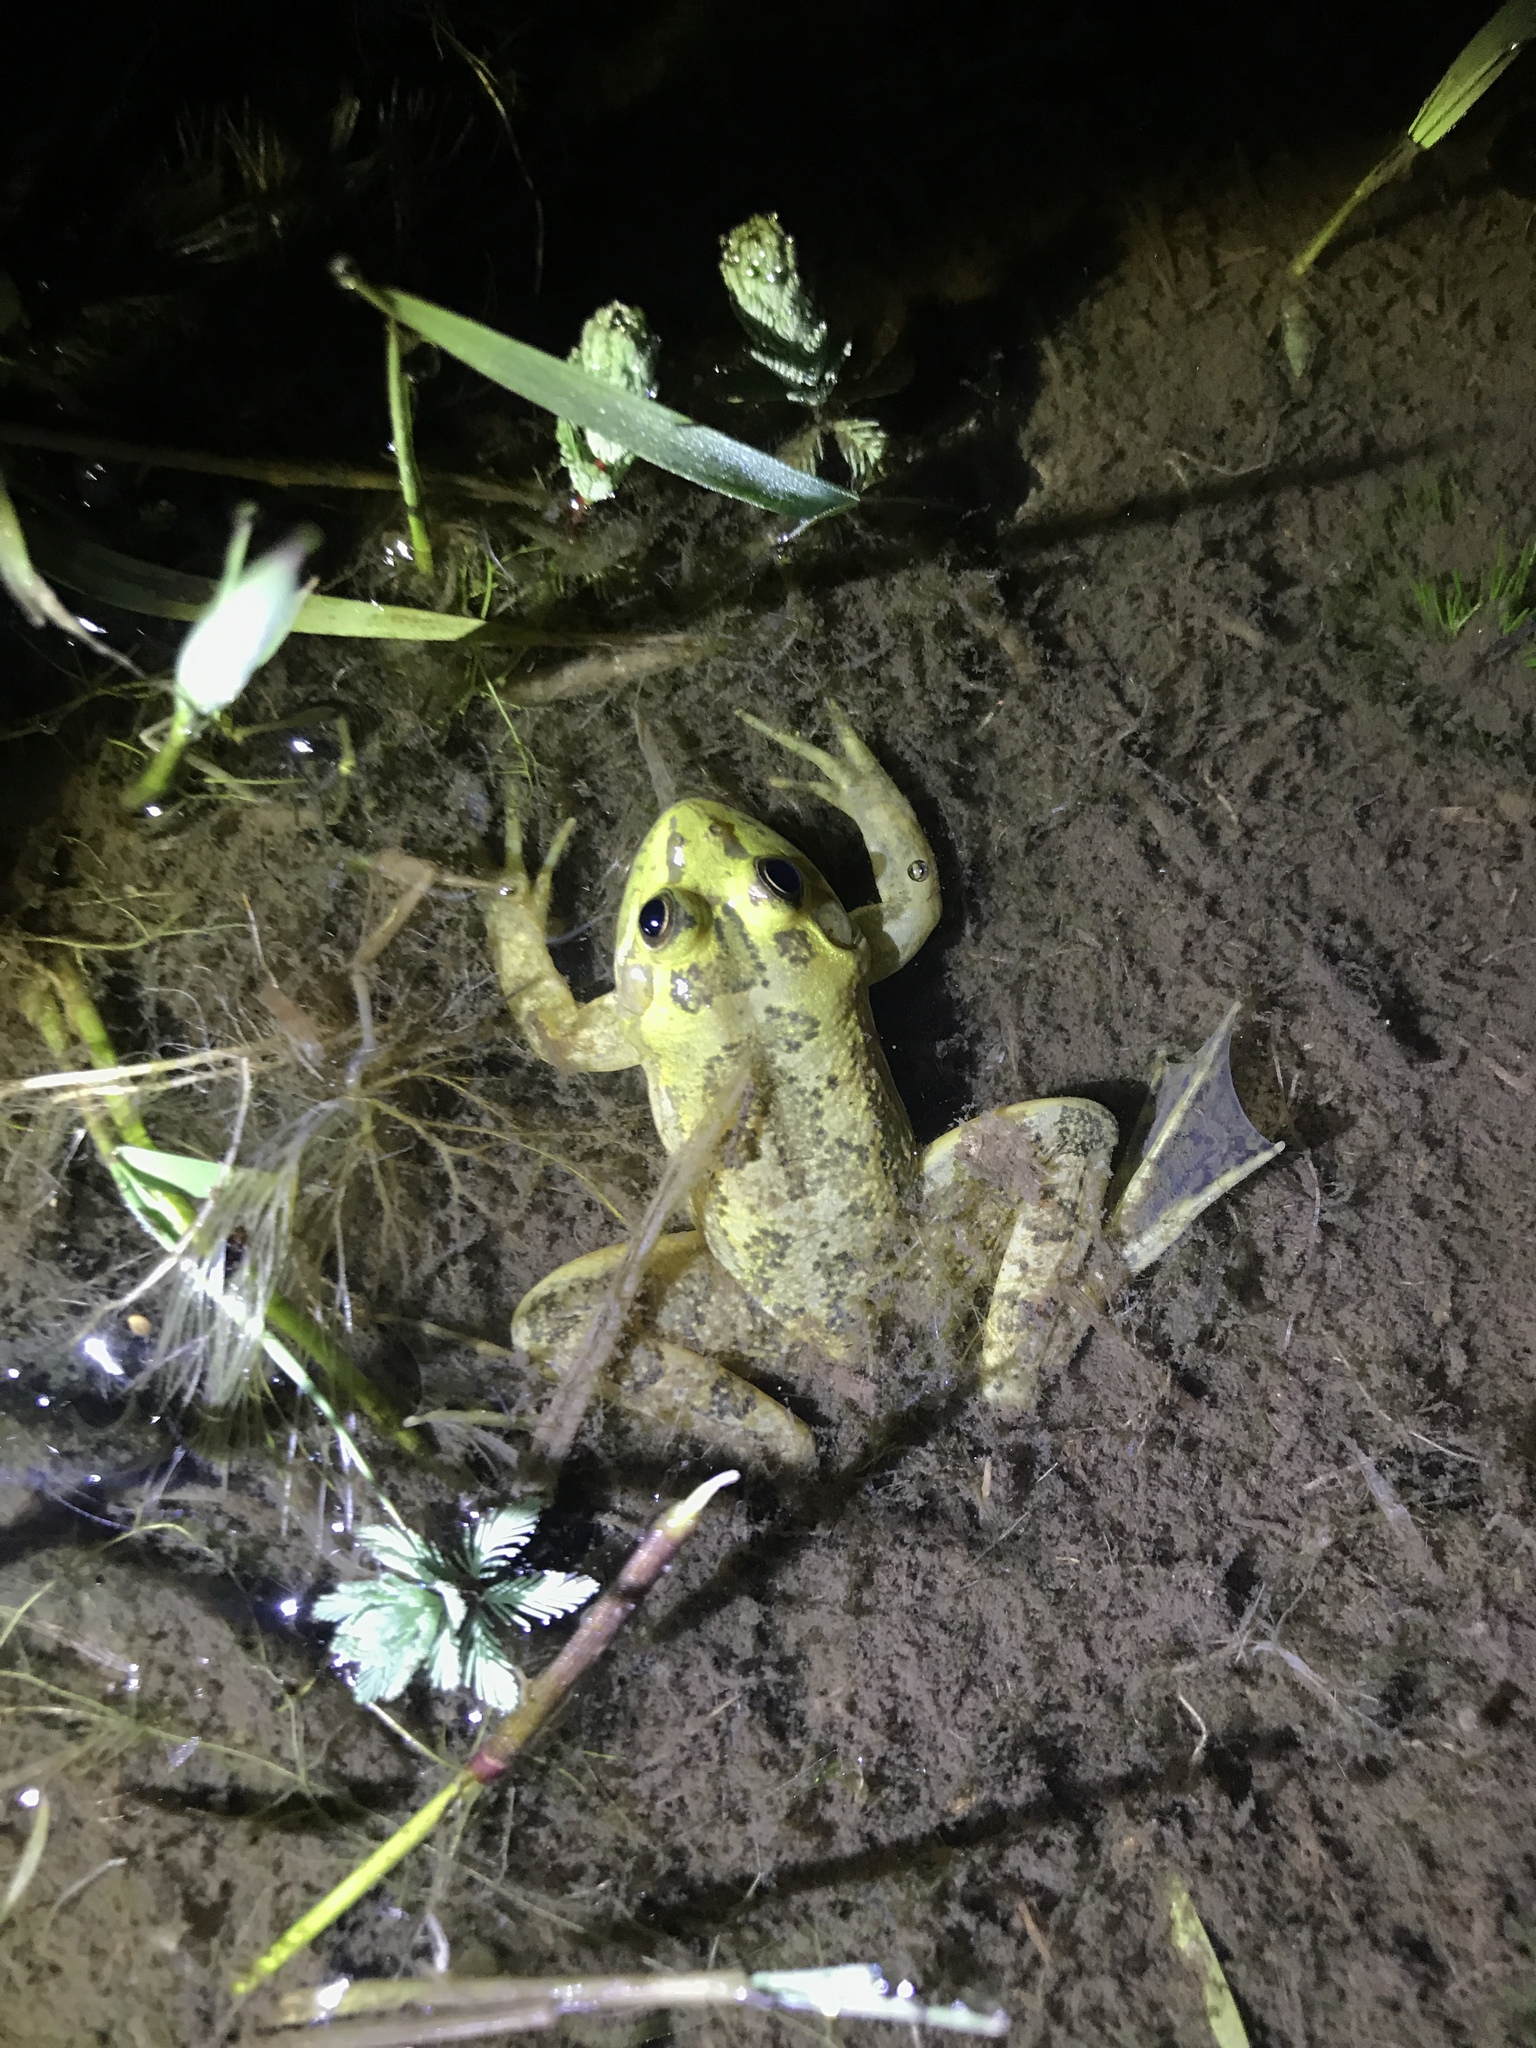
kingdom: Animalia
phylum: Chordata
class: Amphibia
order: Anura
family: Hylidae
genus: Pseudis
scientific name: Pseudis minuta
